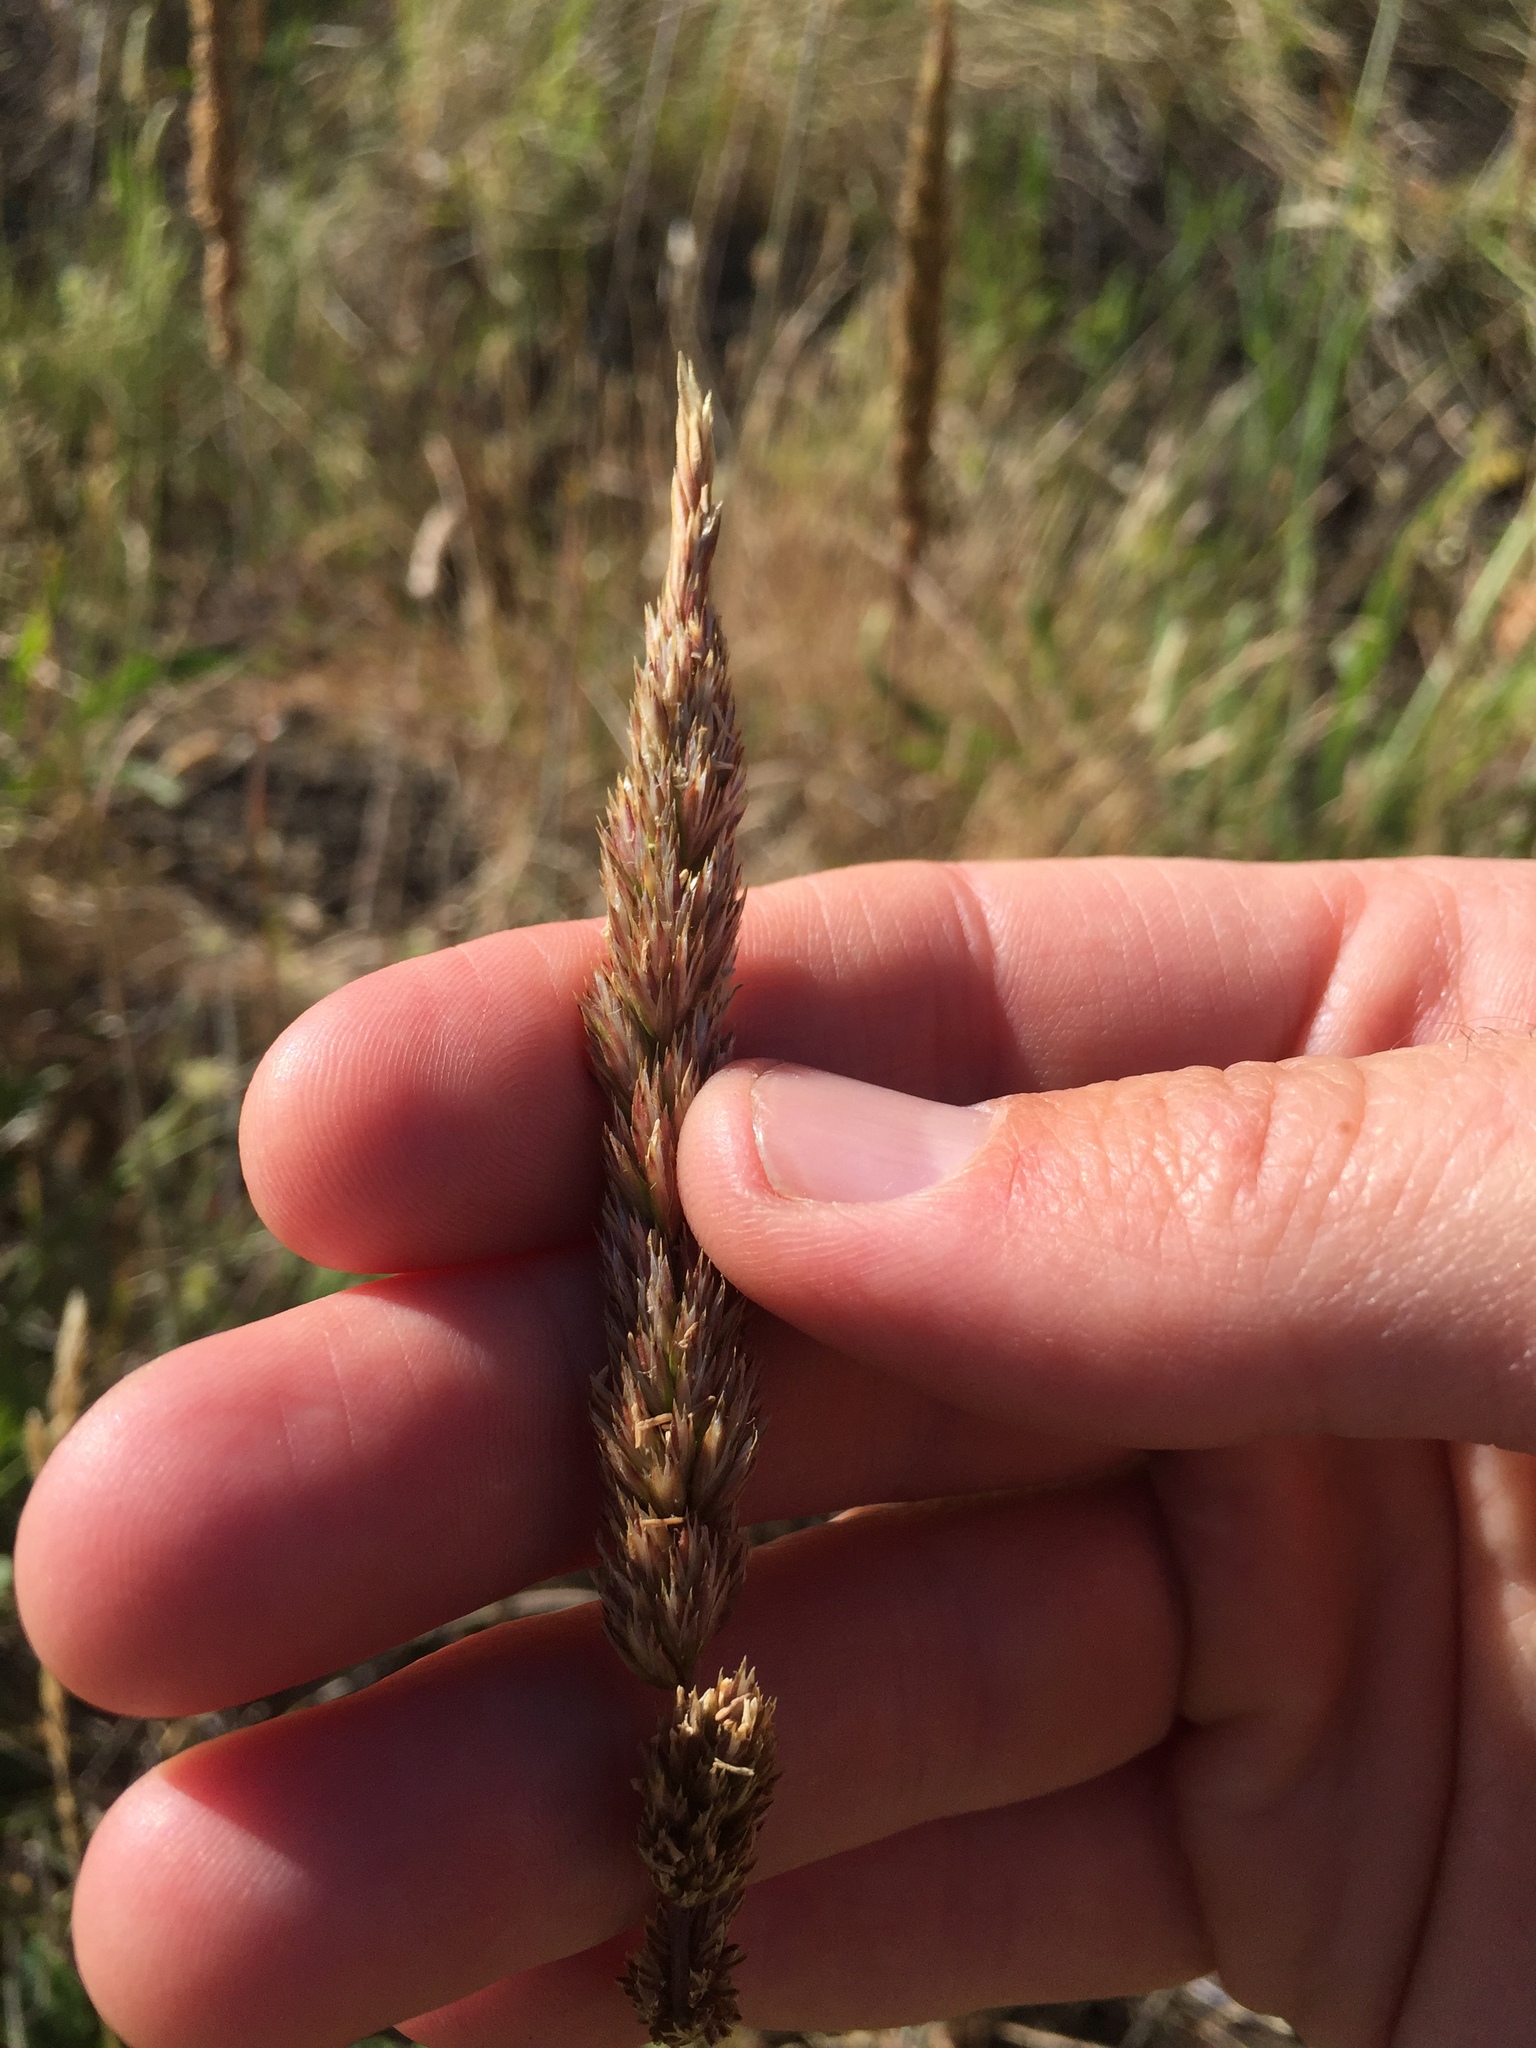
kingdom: Plantae
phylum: Tracheophyta
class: Liliopsida
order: Poales
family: Poaceae
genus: Koeleria
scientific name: Koeleria macrantha
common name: Crested hair-grass
